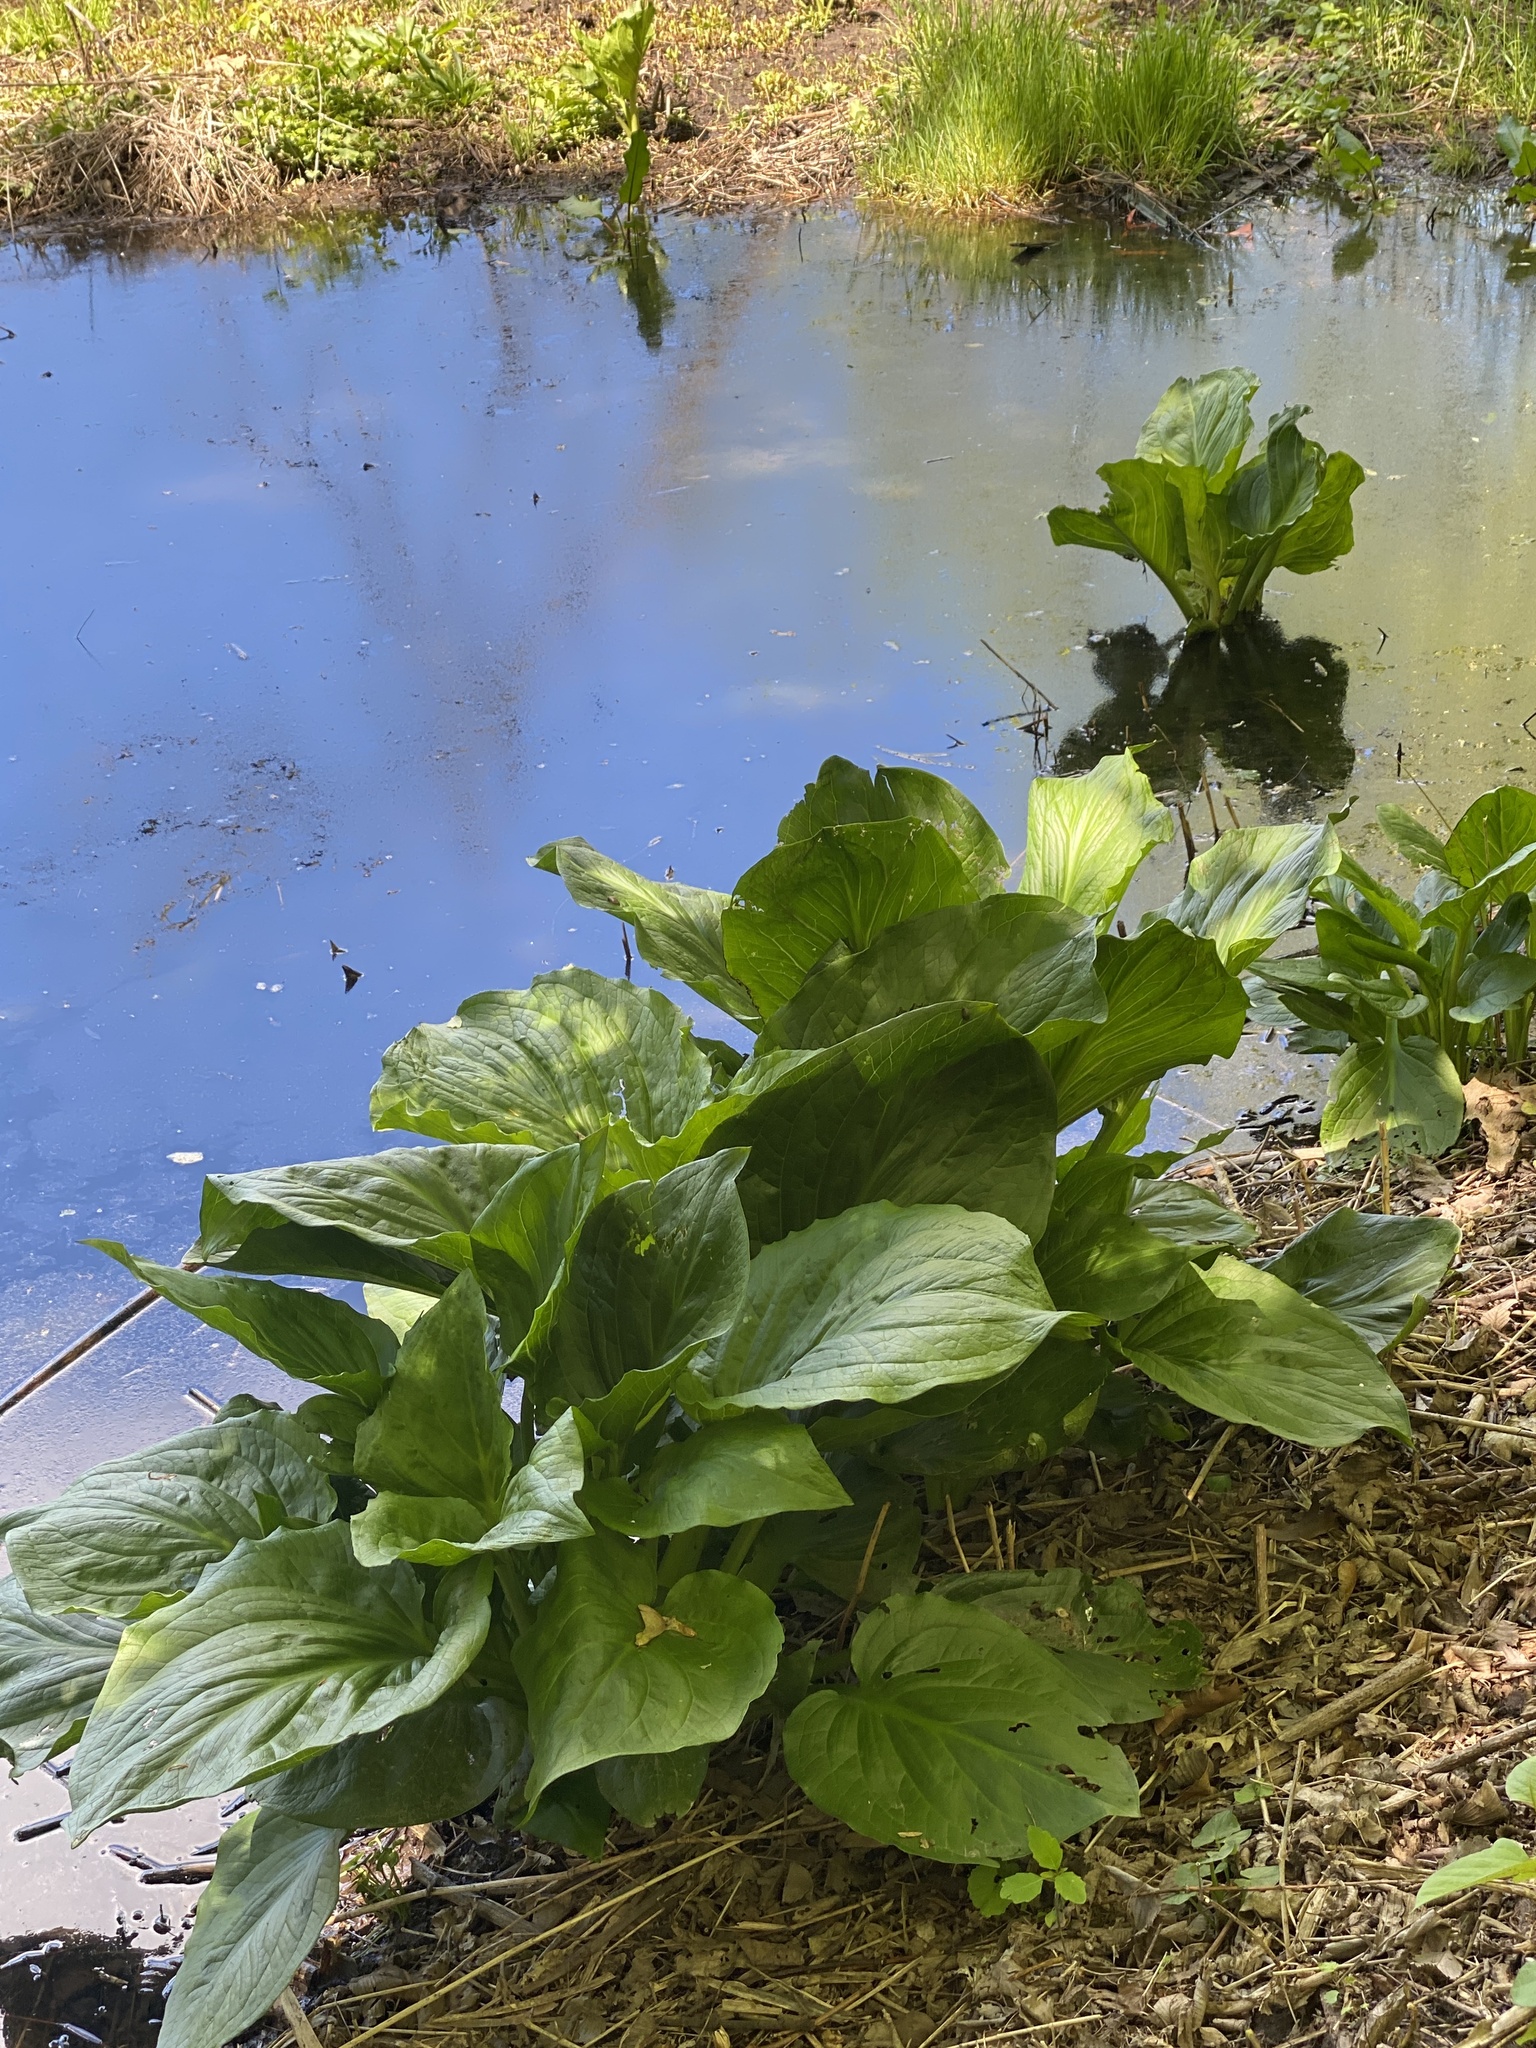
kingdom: Plantae
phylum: Tracheophyta
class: Liliopsida
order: Alismatales
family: Araceae
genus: Symplocarpus
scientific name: Symplocarpus foetidus
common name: Eastern skunk cabbage
